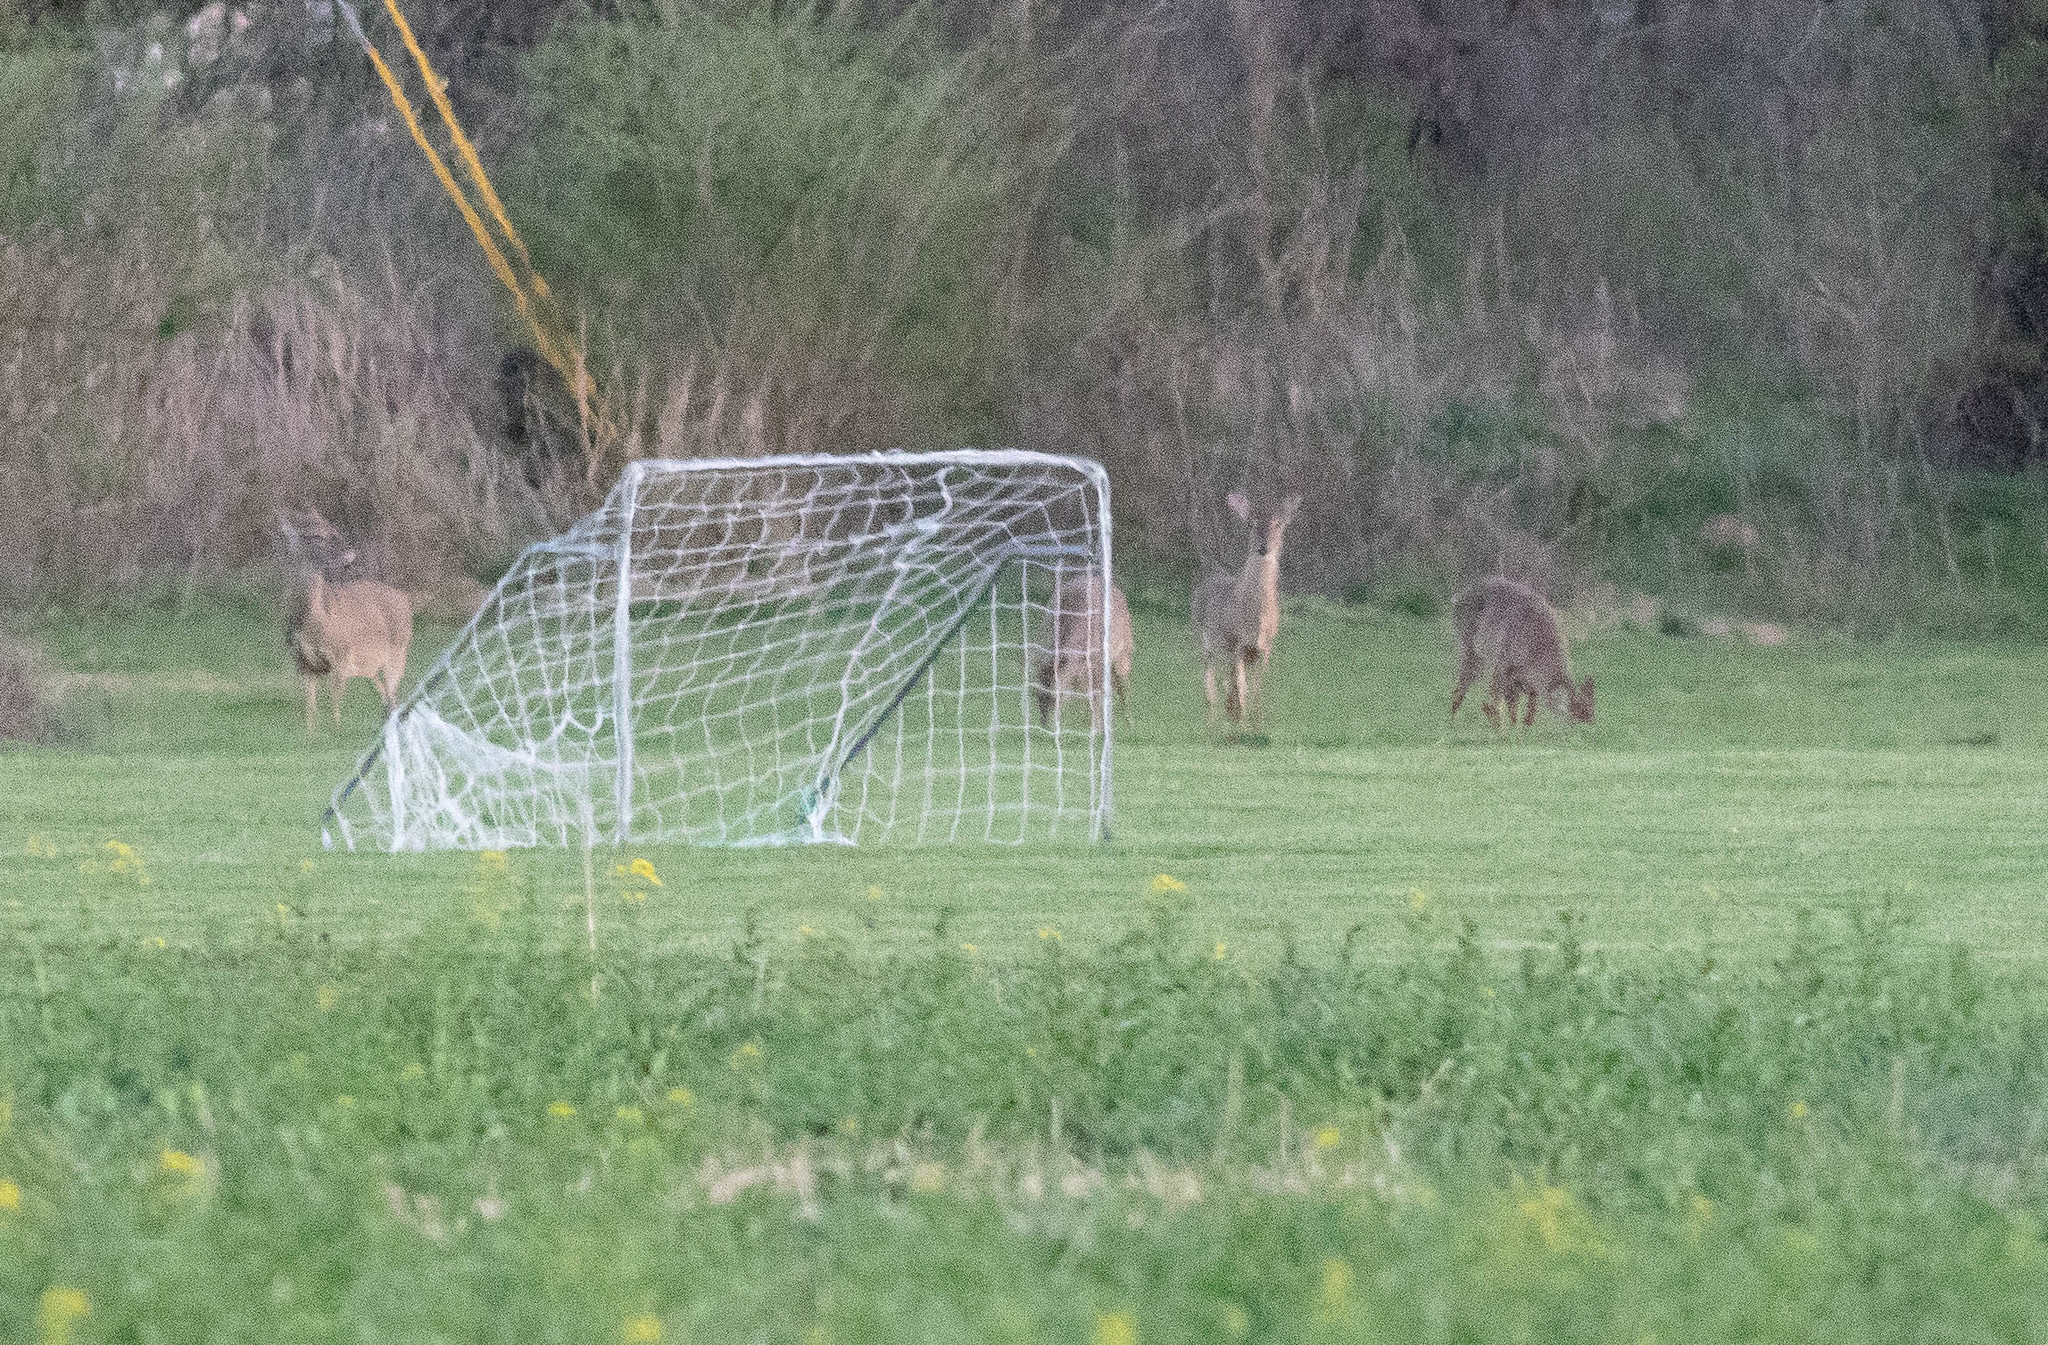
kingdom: Animalia
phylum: Chordata
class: Mammalia
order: Artiodactyla
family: Cervidae
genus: Odocoileus
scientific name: Odocoileus virginianus
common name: White-tailed deer
